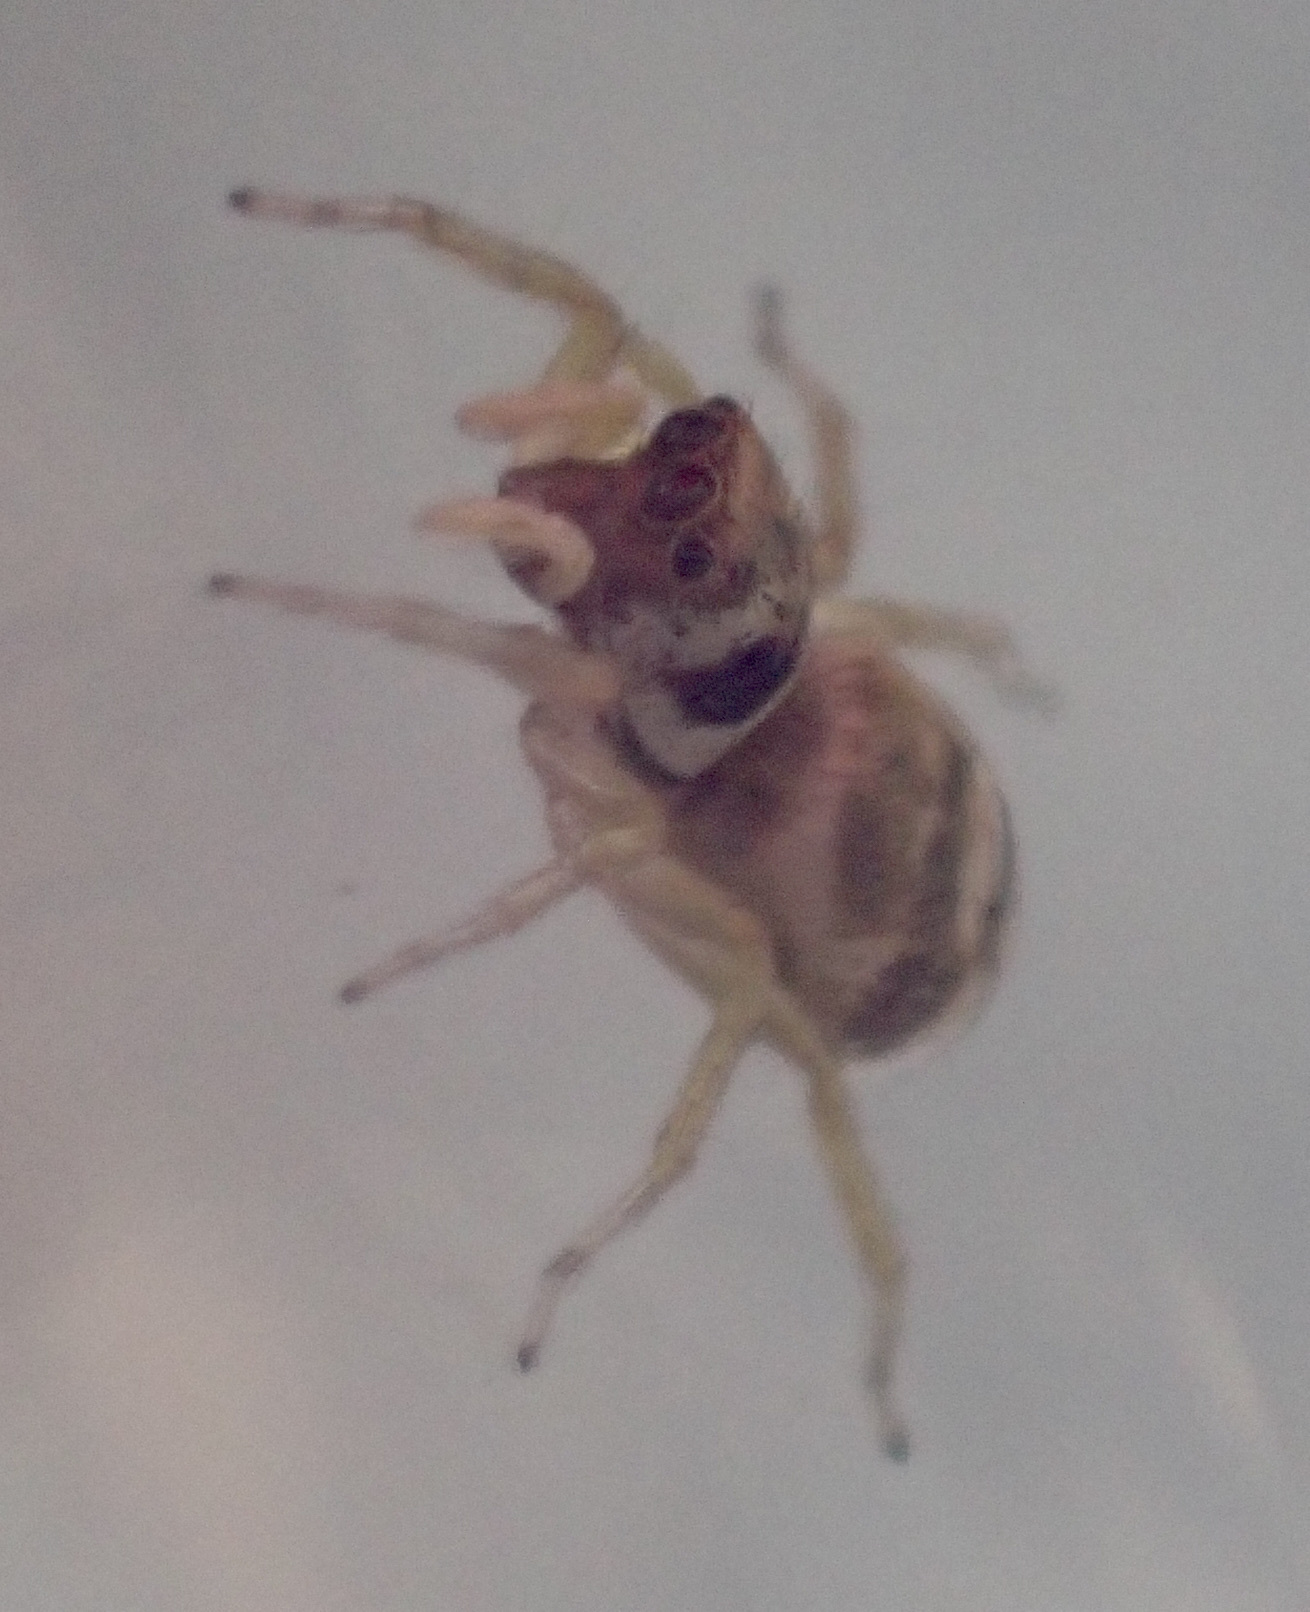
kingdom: Animalia
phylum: Arthropoda
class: Arachnida
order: Araneae
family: Salticidae
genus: Phintella
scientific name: Phintella aequipes
